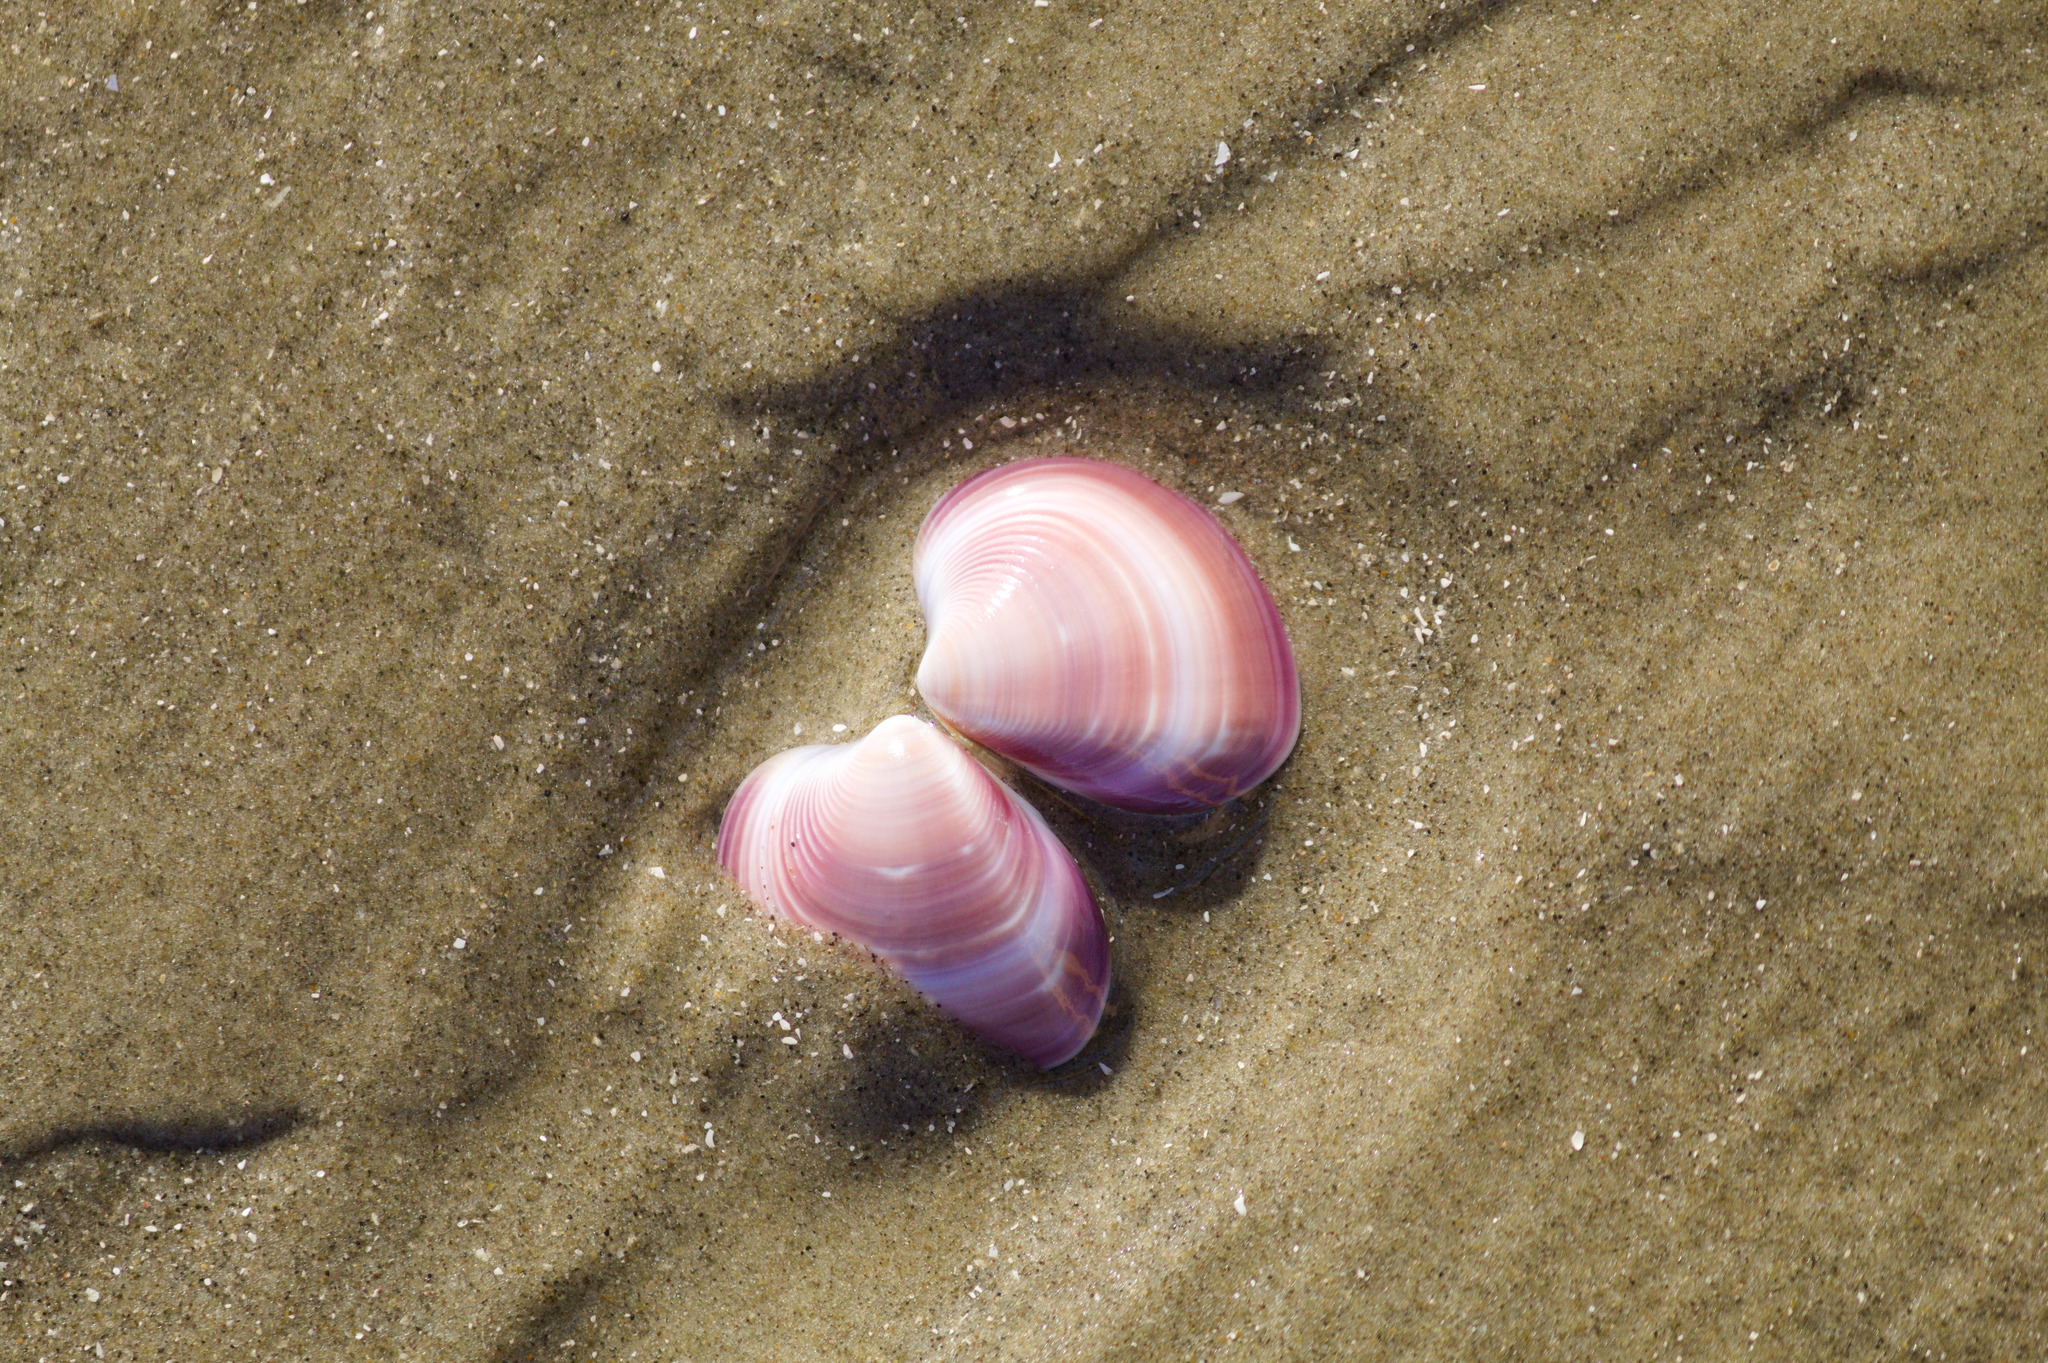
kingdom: Animalia
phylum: Mollusca
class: Bivalvia
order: Venerida
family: Veneridae
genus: Eucallista
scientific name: Eucallista purpurata
